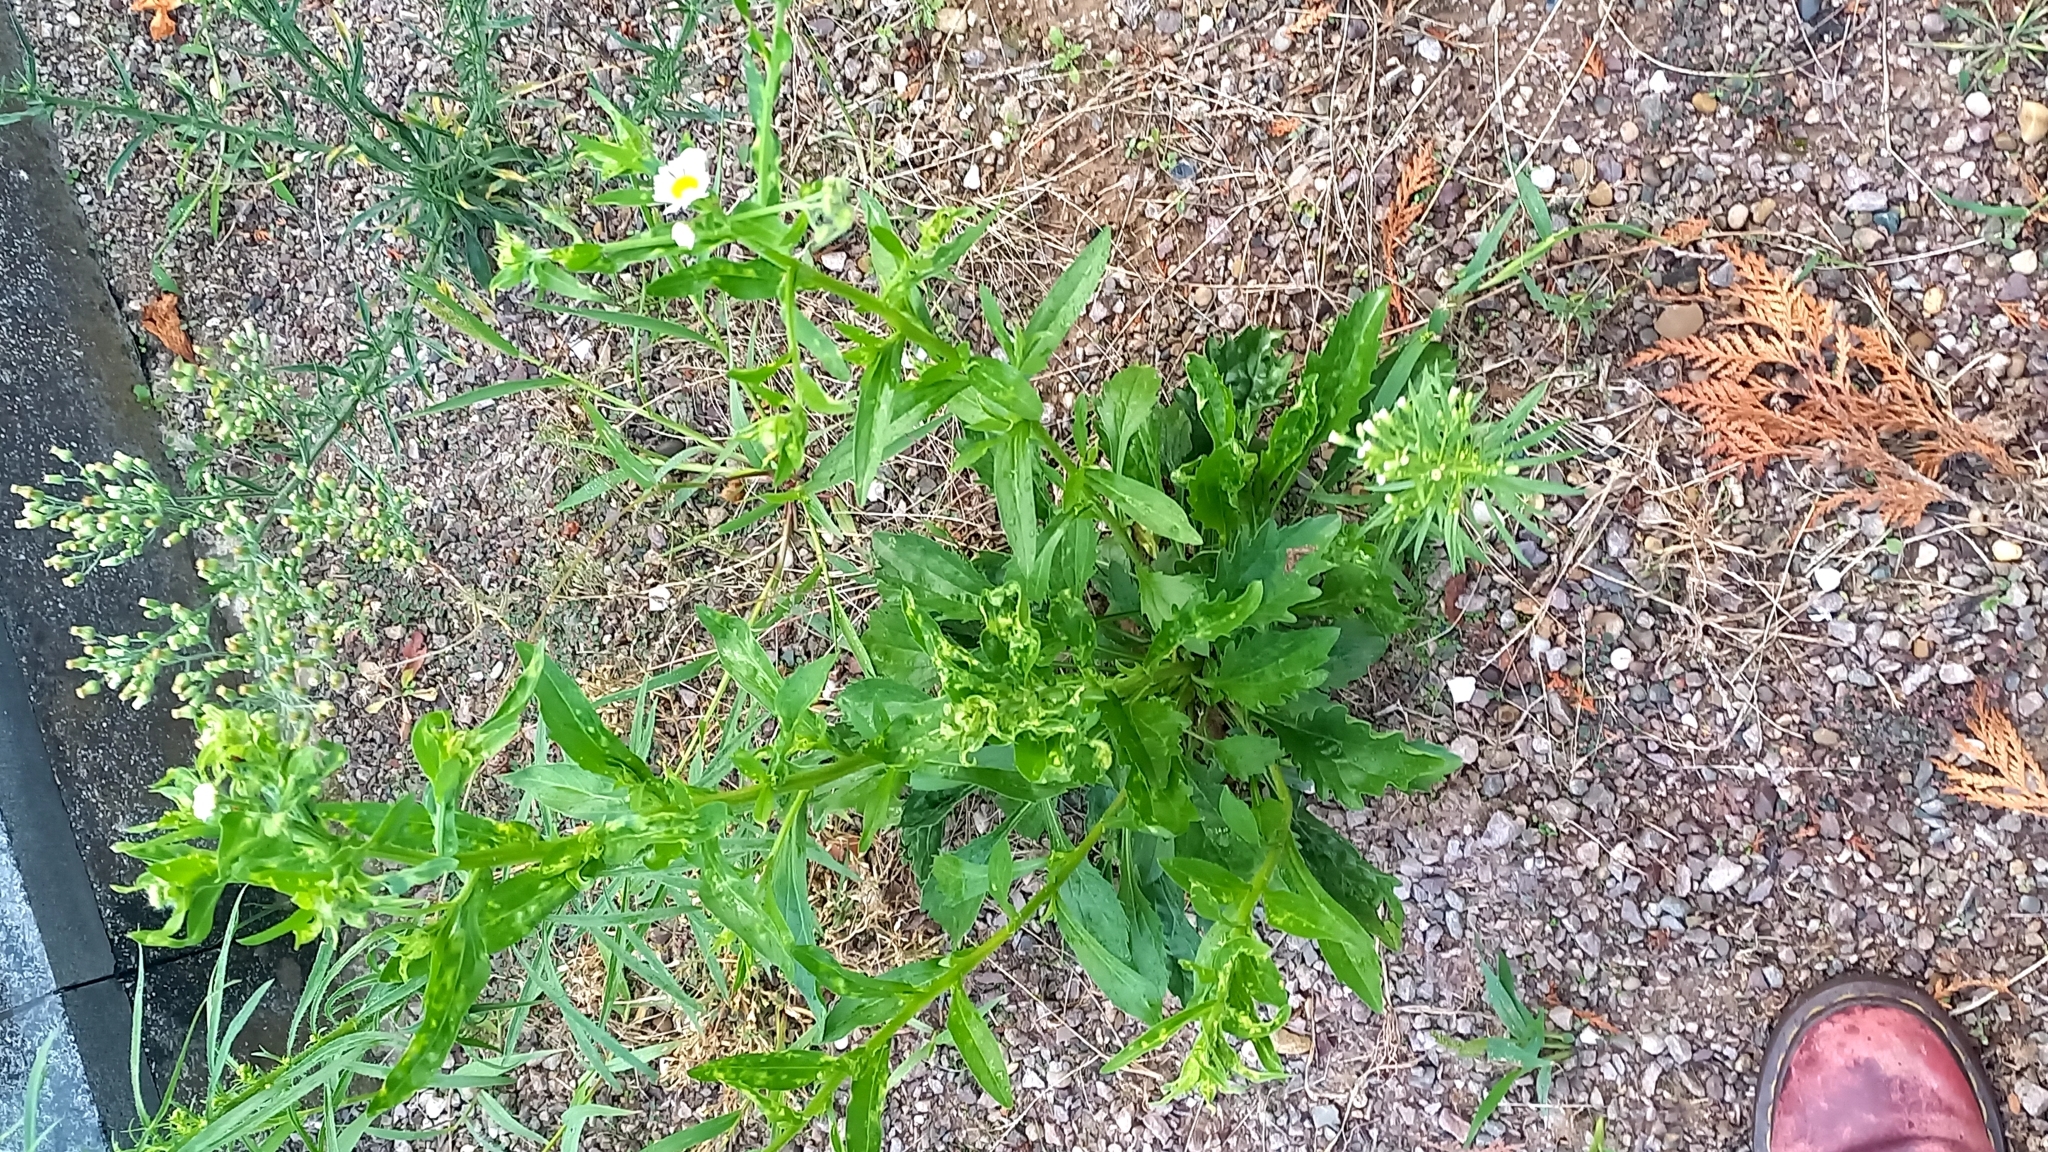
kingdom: Plantae
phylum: Tracheophyta
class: Magnoliopsida
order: Asterales
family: Asteraceae
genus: Erigeron
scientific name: Erigeron annuus
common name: Tall fleabane
